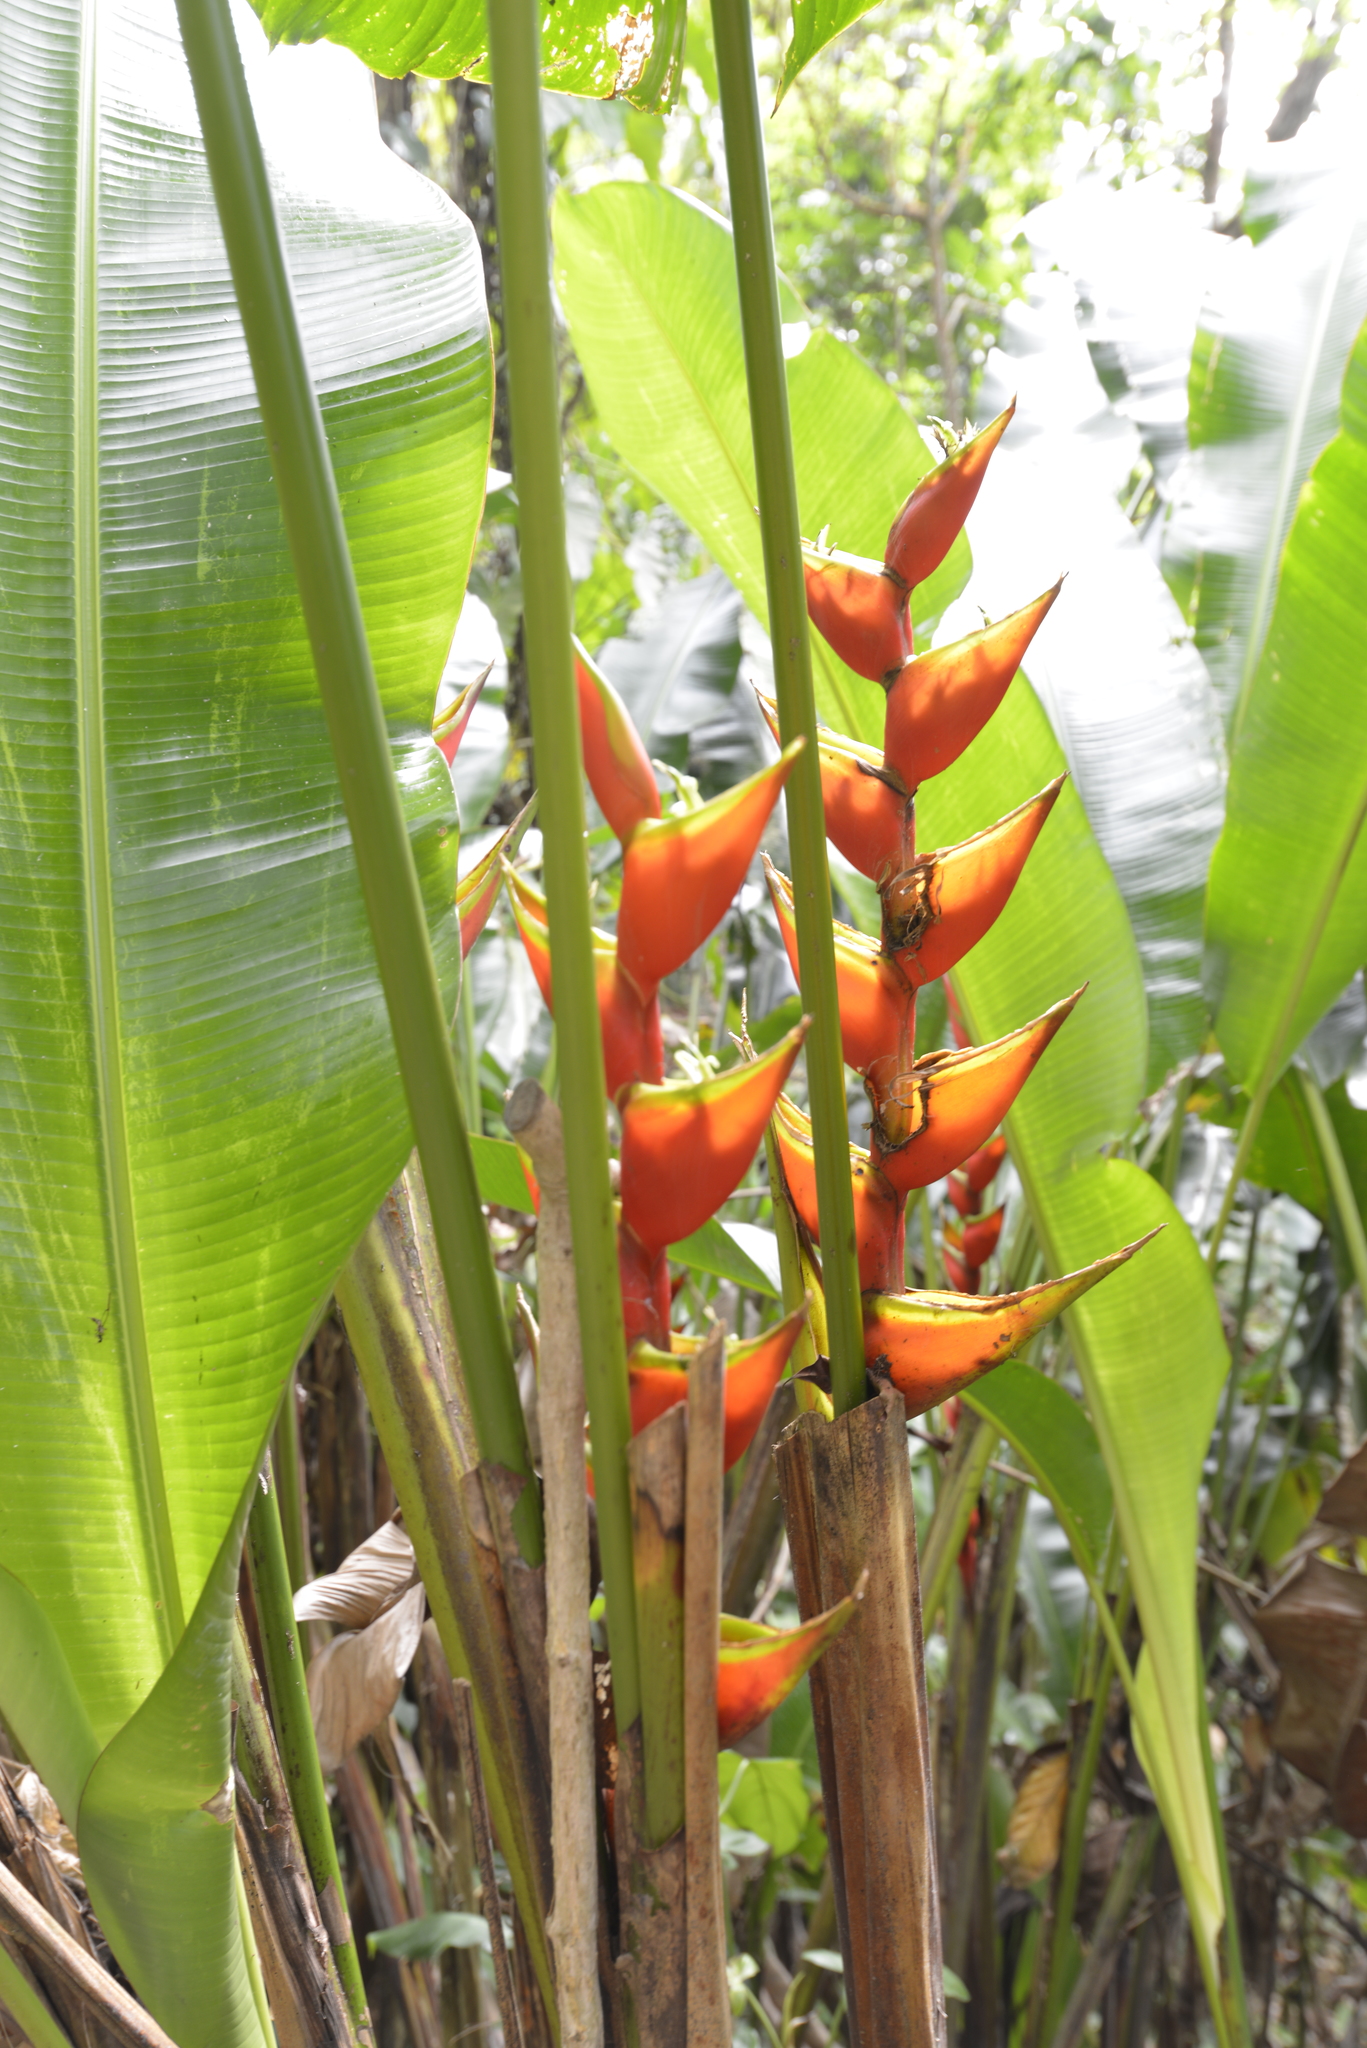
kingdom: Plantae
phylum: Tracheophyta
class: Liliopsida
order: Zingiberales
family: Heliconiaceae
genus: Heliconia
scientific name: Heliconia bihai
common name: Macaw flower
